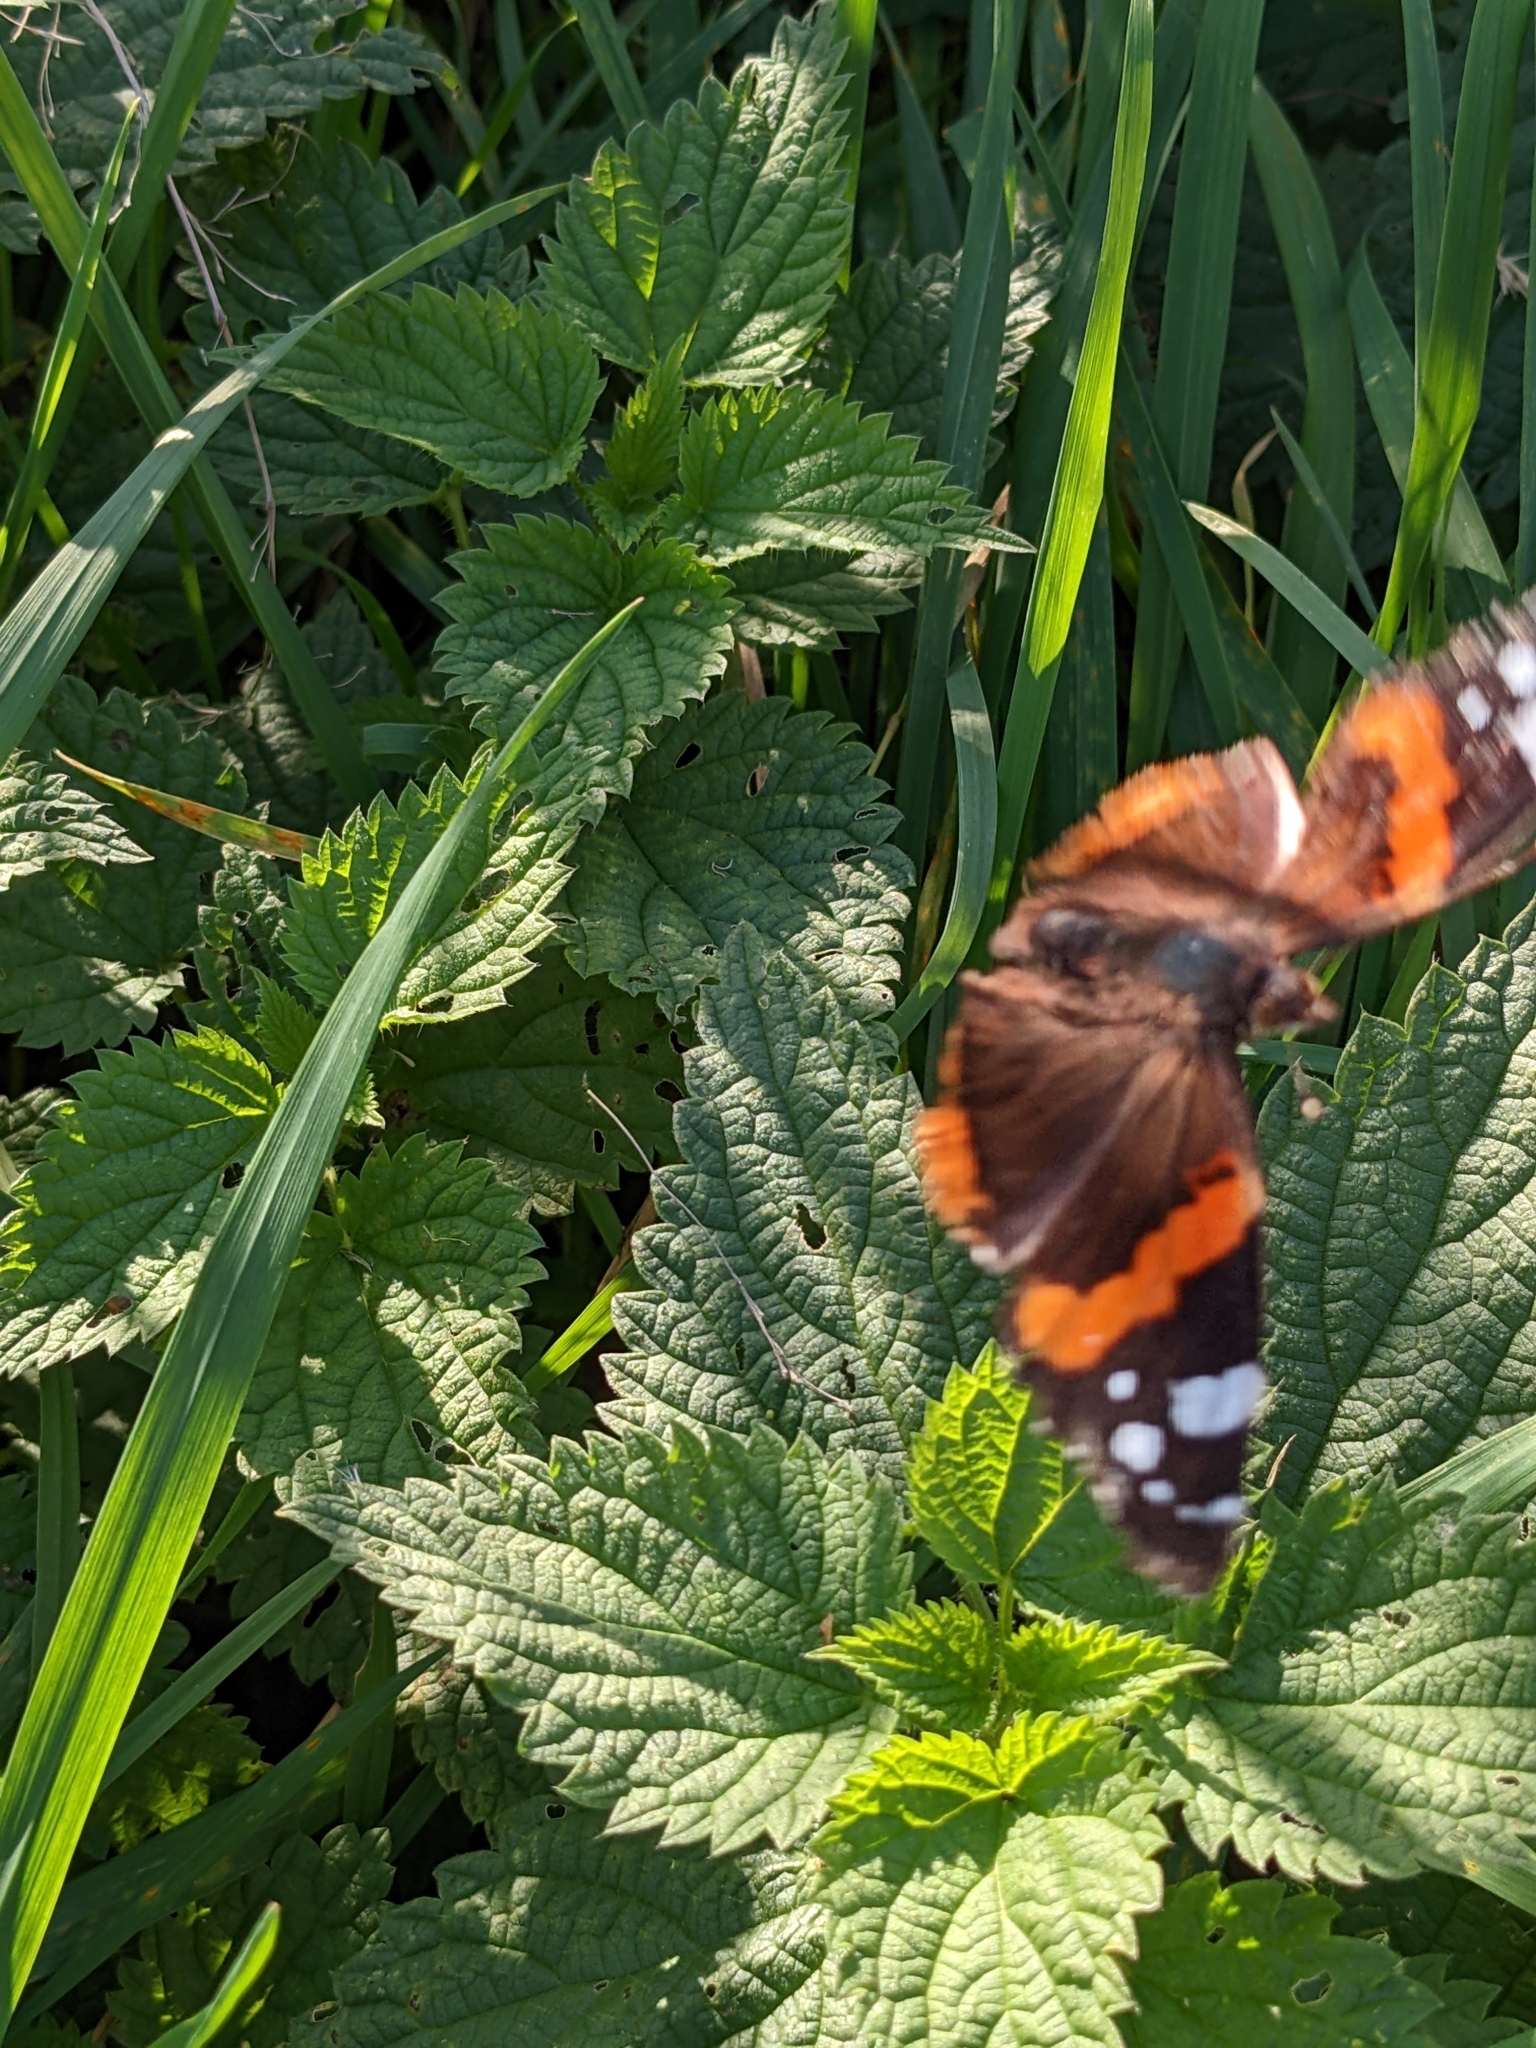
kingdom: Animalia
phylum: Arthropoda
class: Insecta
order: Lepidoptera
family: Nymphalidae
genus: Vanessa
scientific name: Vanessa atalanta
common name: Red admiral
